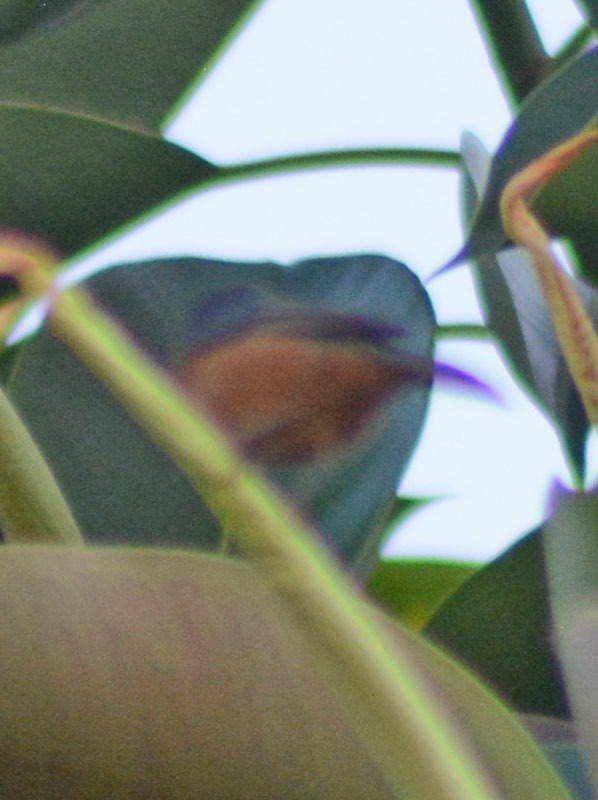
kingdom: Animalia
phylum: Chordata
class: Aves
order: Passeriformes
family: Thraupidae
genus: Diglossa
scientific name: Diglossa baritula
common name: Cinnamon-bellied flowerpiercer
